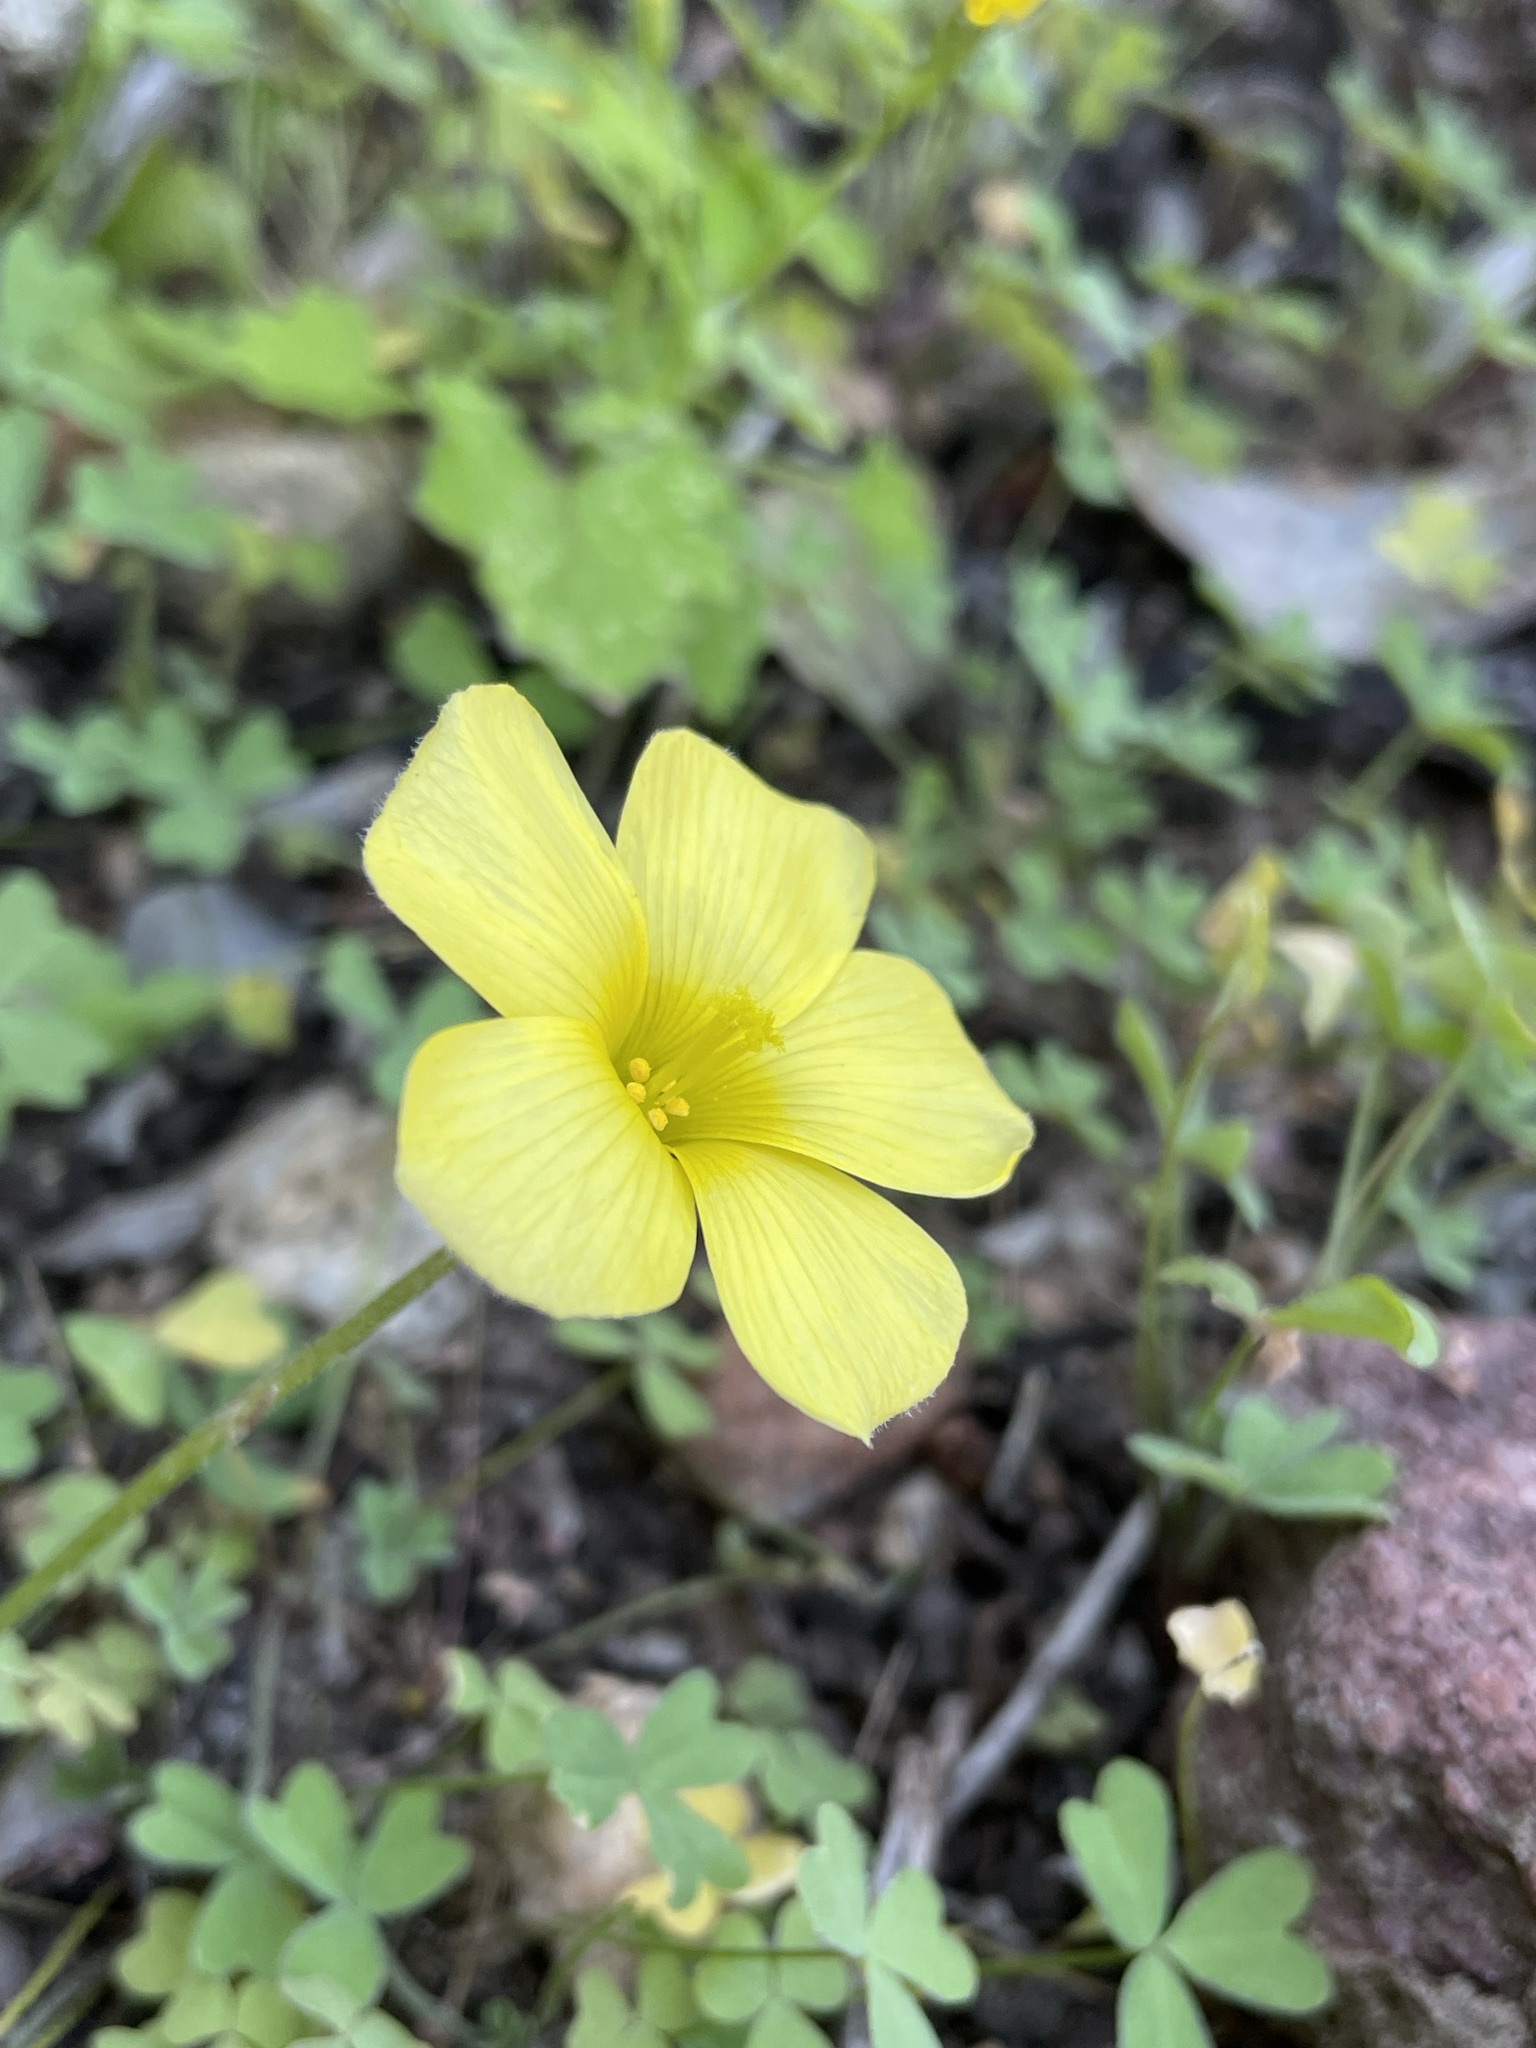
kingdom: Plantae
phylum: Tracheophyta
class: Magnoliopsida
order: Oxalidales
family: Oxalidaceae
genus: Oxalis
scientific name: Oxalis obtusa
